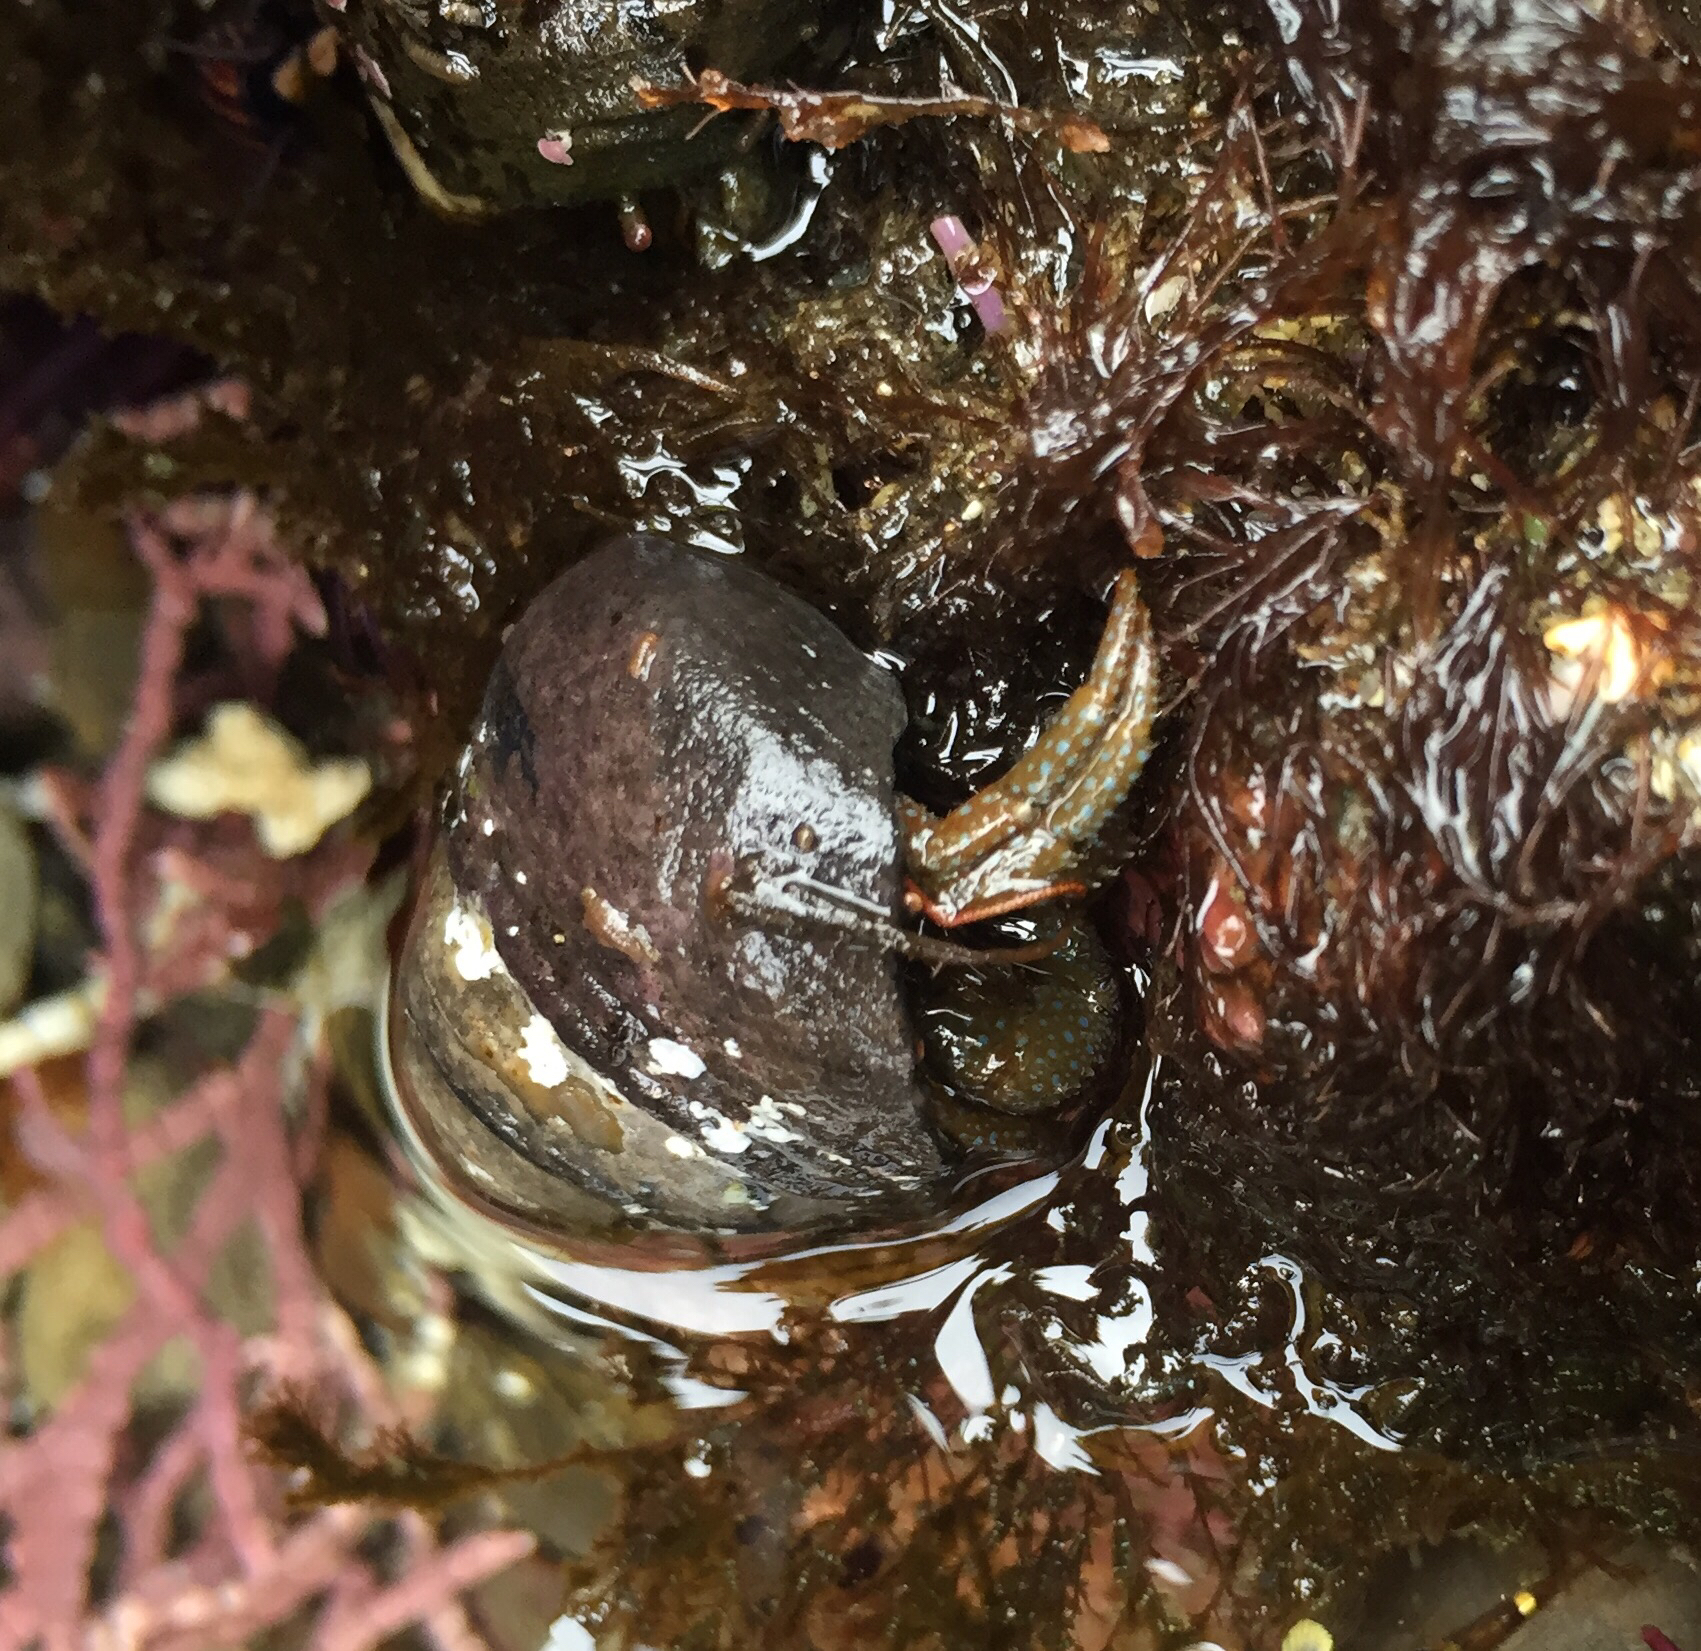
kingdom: Animalia
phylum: Arthropoda
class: Malacostraca
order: Decapoda
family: Paguridae
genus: Pagurus
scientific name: Pagurus granosimanus
